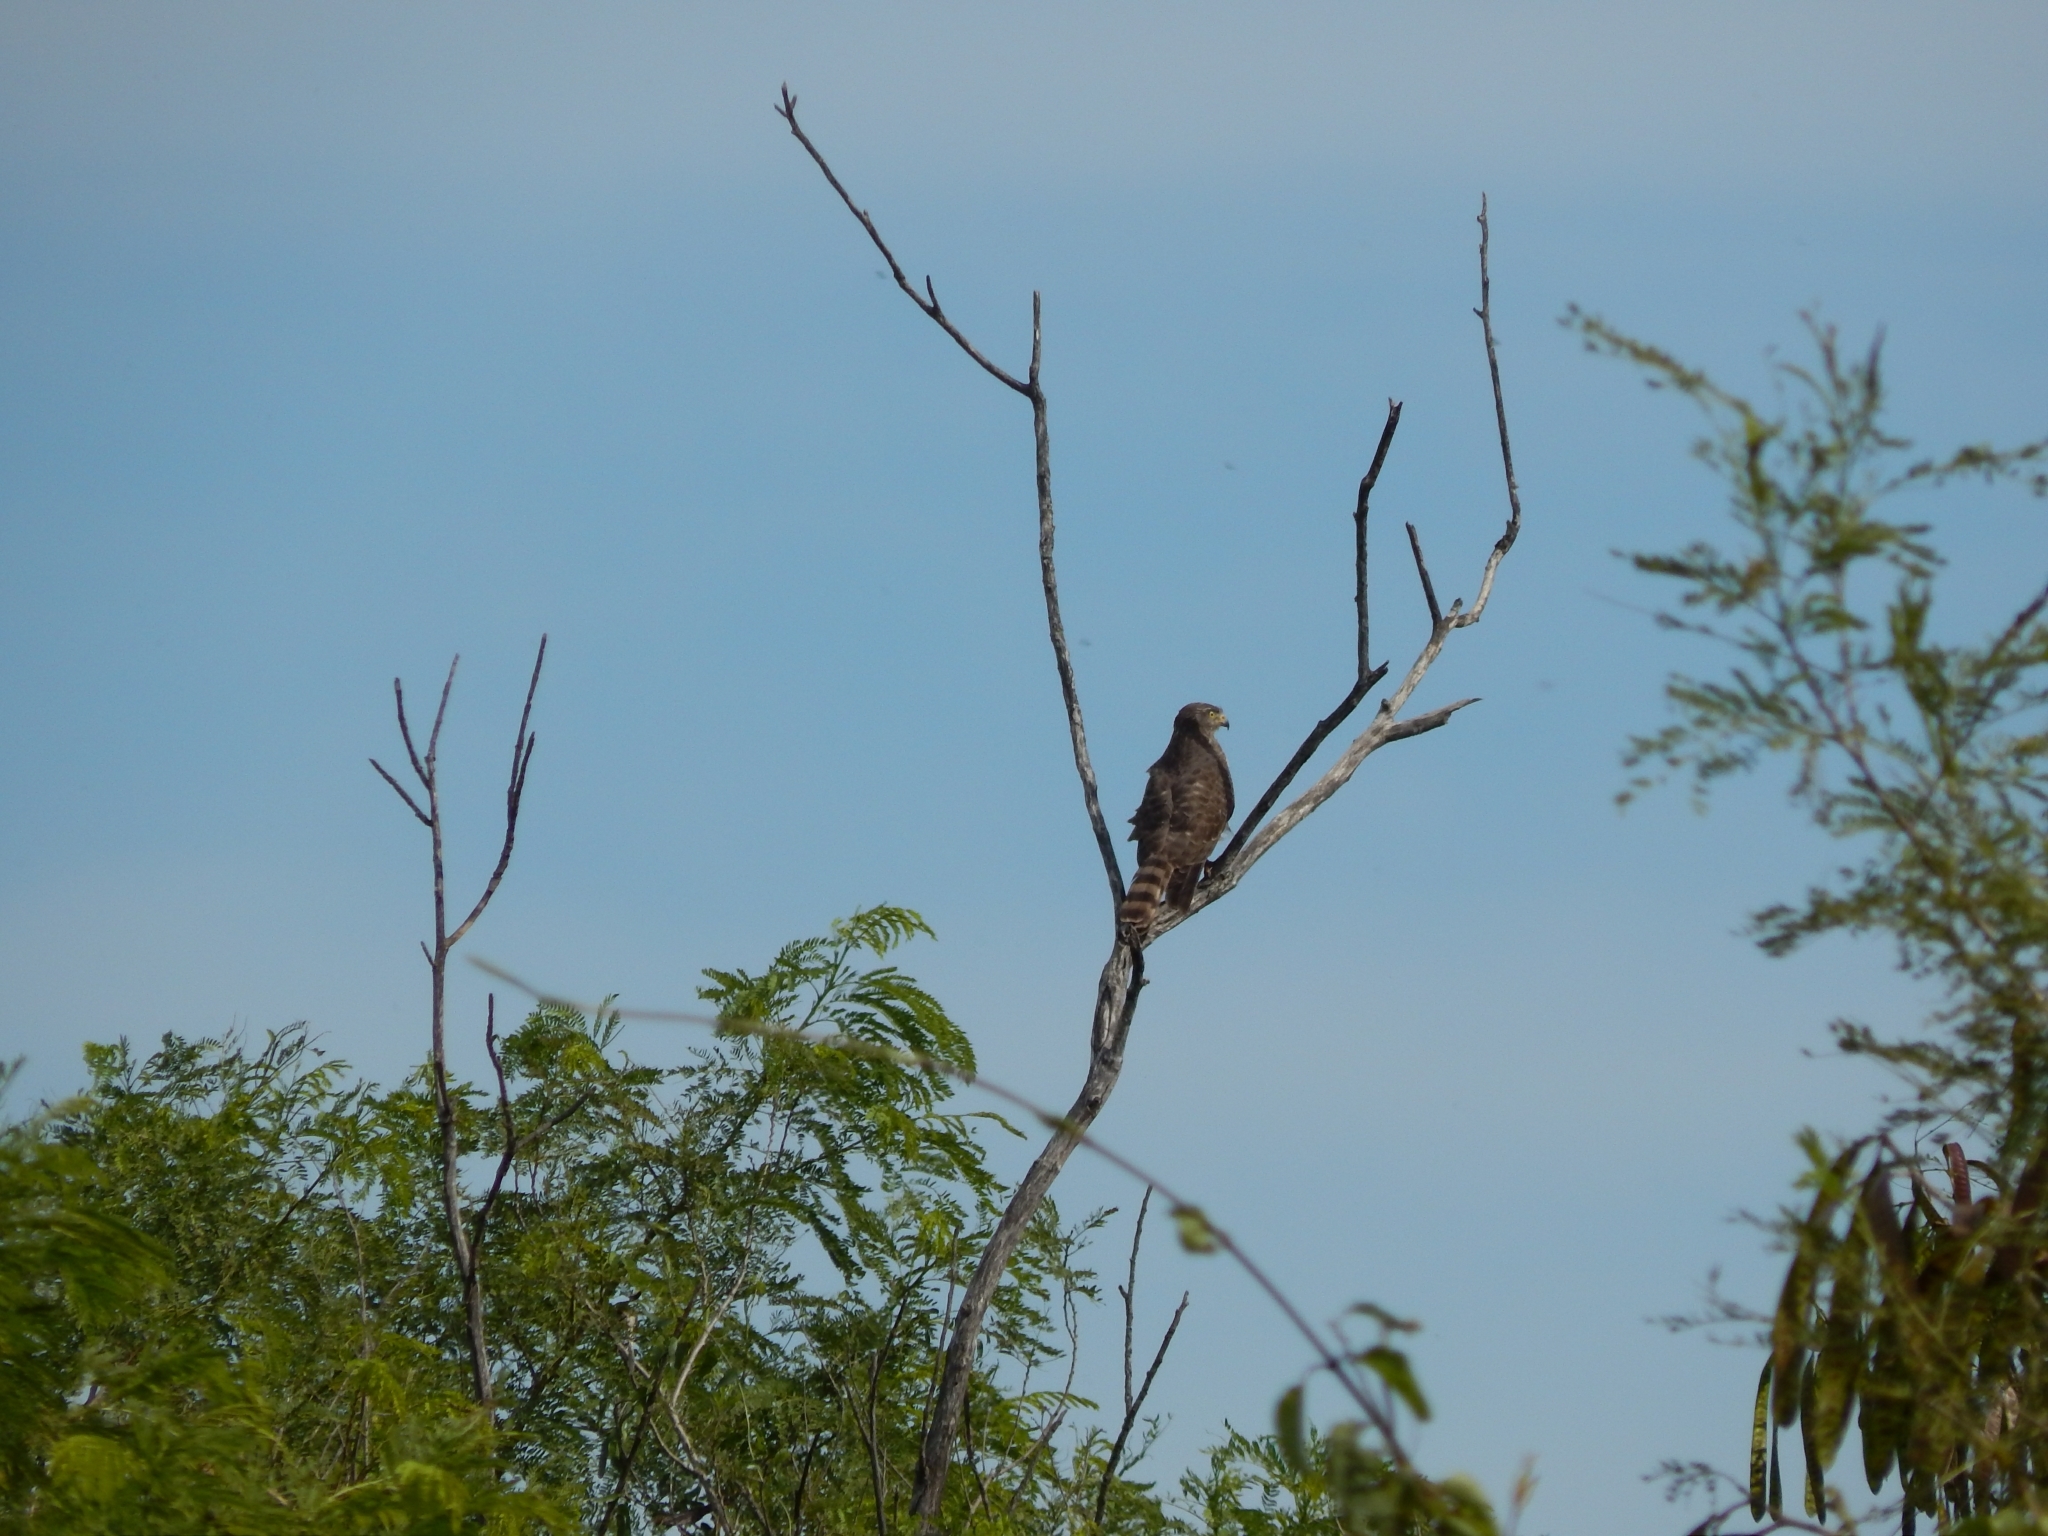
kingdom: Animalia
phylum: Chordata
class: Aves
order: Accipitriformes
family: Accipitridae
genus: Rupornis
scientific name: Rupornis magnirostris
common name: Roadside hawk
